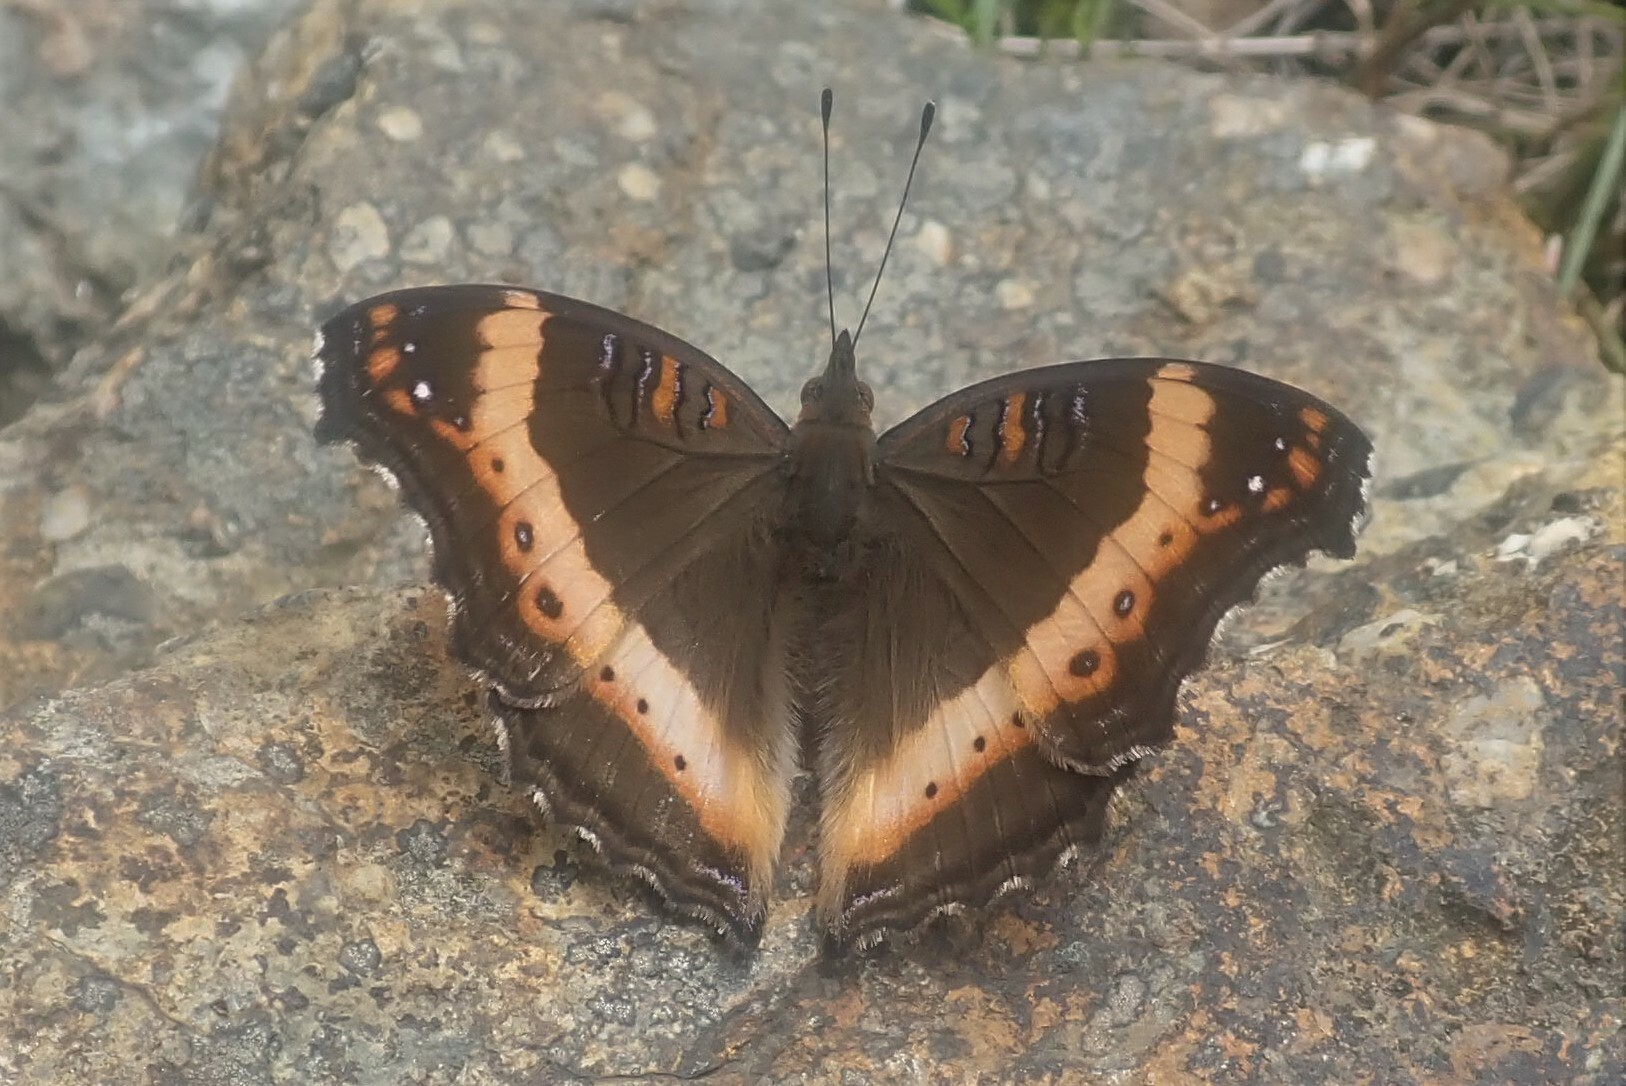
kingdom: Animalia
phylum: Arthropoda
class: Insecta
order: Lepidoptera
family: Nymphalidae
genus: Junonia
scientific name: Junonia archesia
